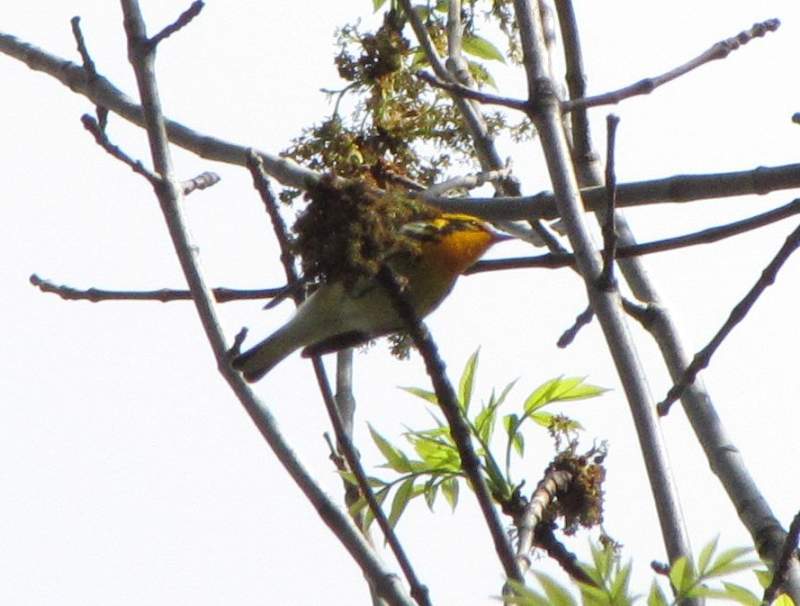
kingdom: Animalia
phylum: Chordata
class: Aves
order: Passeriformes
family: Parulidae
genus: Setophaga
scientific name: Setophaga fusca
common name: Blackburnian warbler
